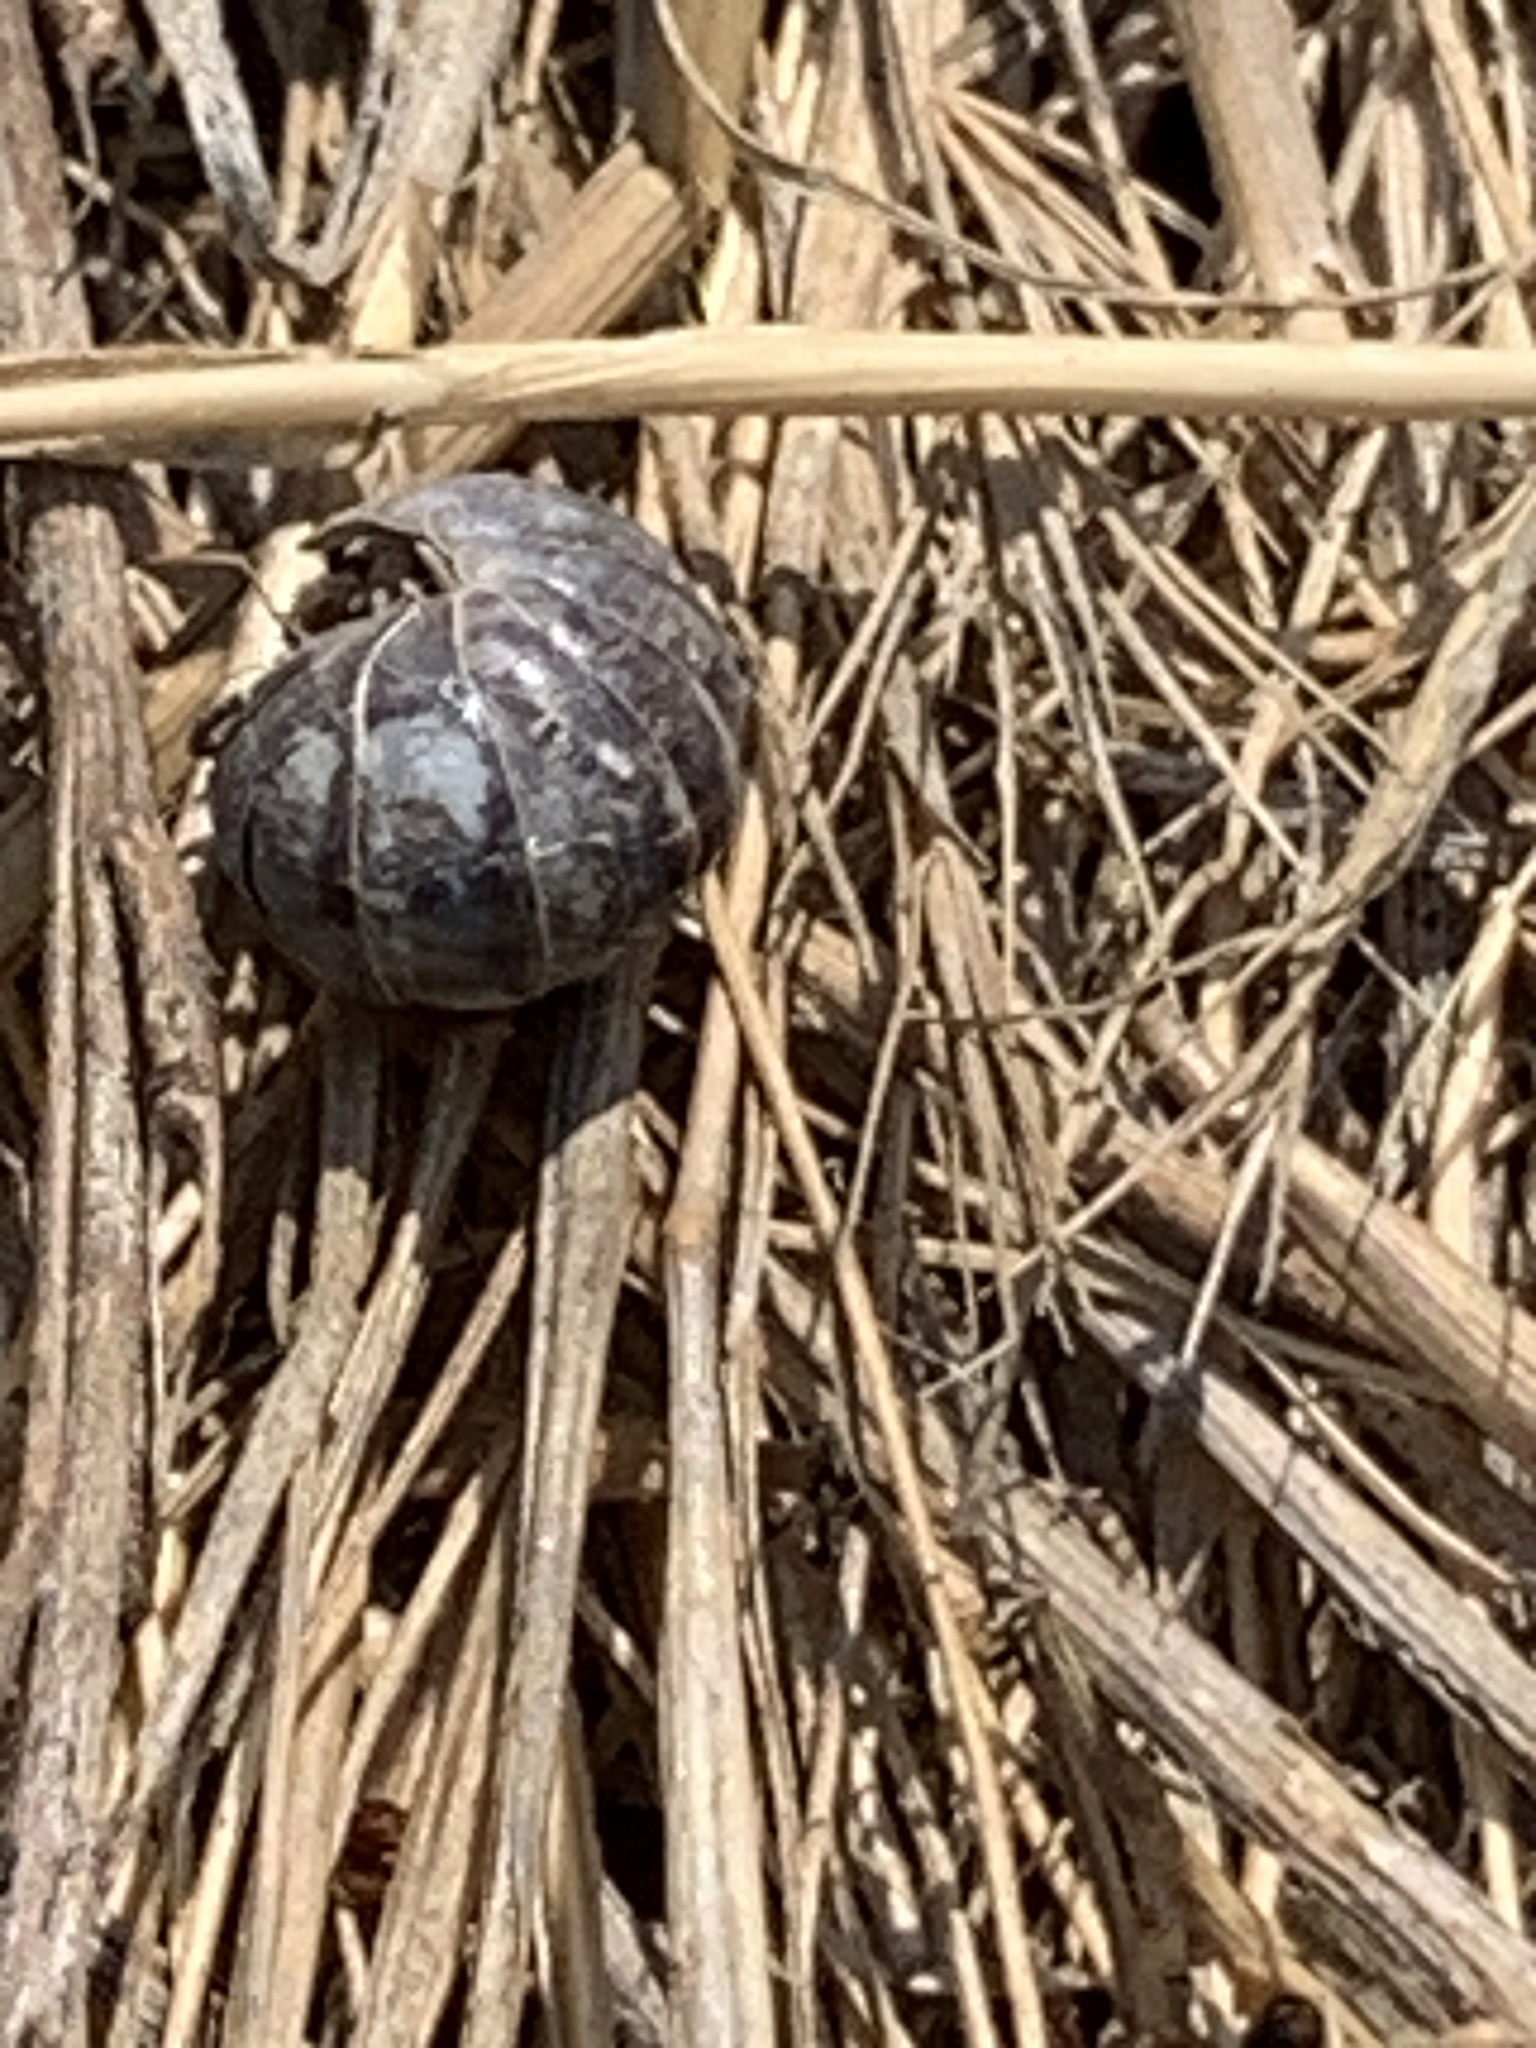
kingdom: Animalia
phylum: Arthropoda
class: Malacostraca
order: Isopoda
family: Armadillidiidae
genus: Armadillidium
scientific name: Armadillidium vulgare
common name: Common pill woodlouse
